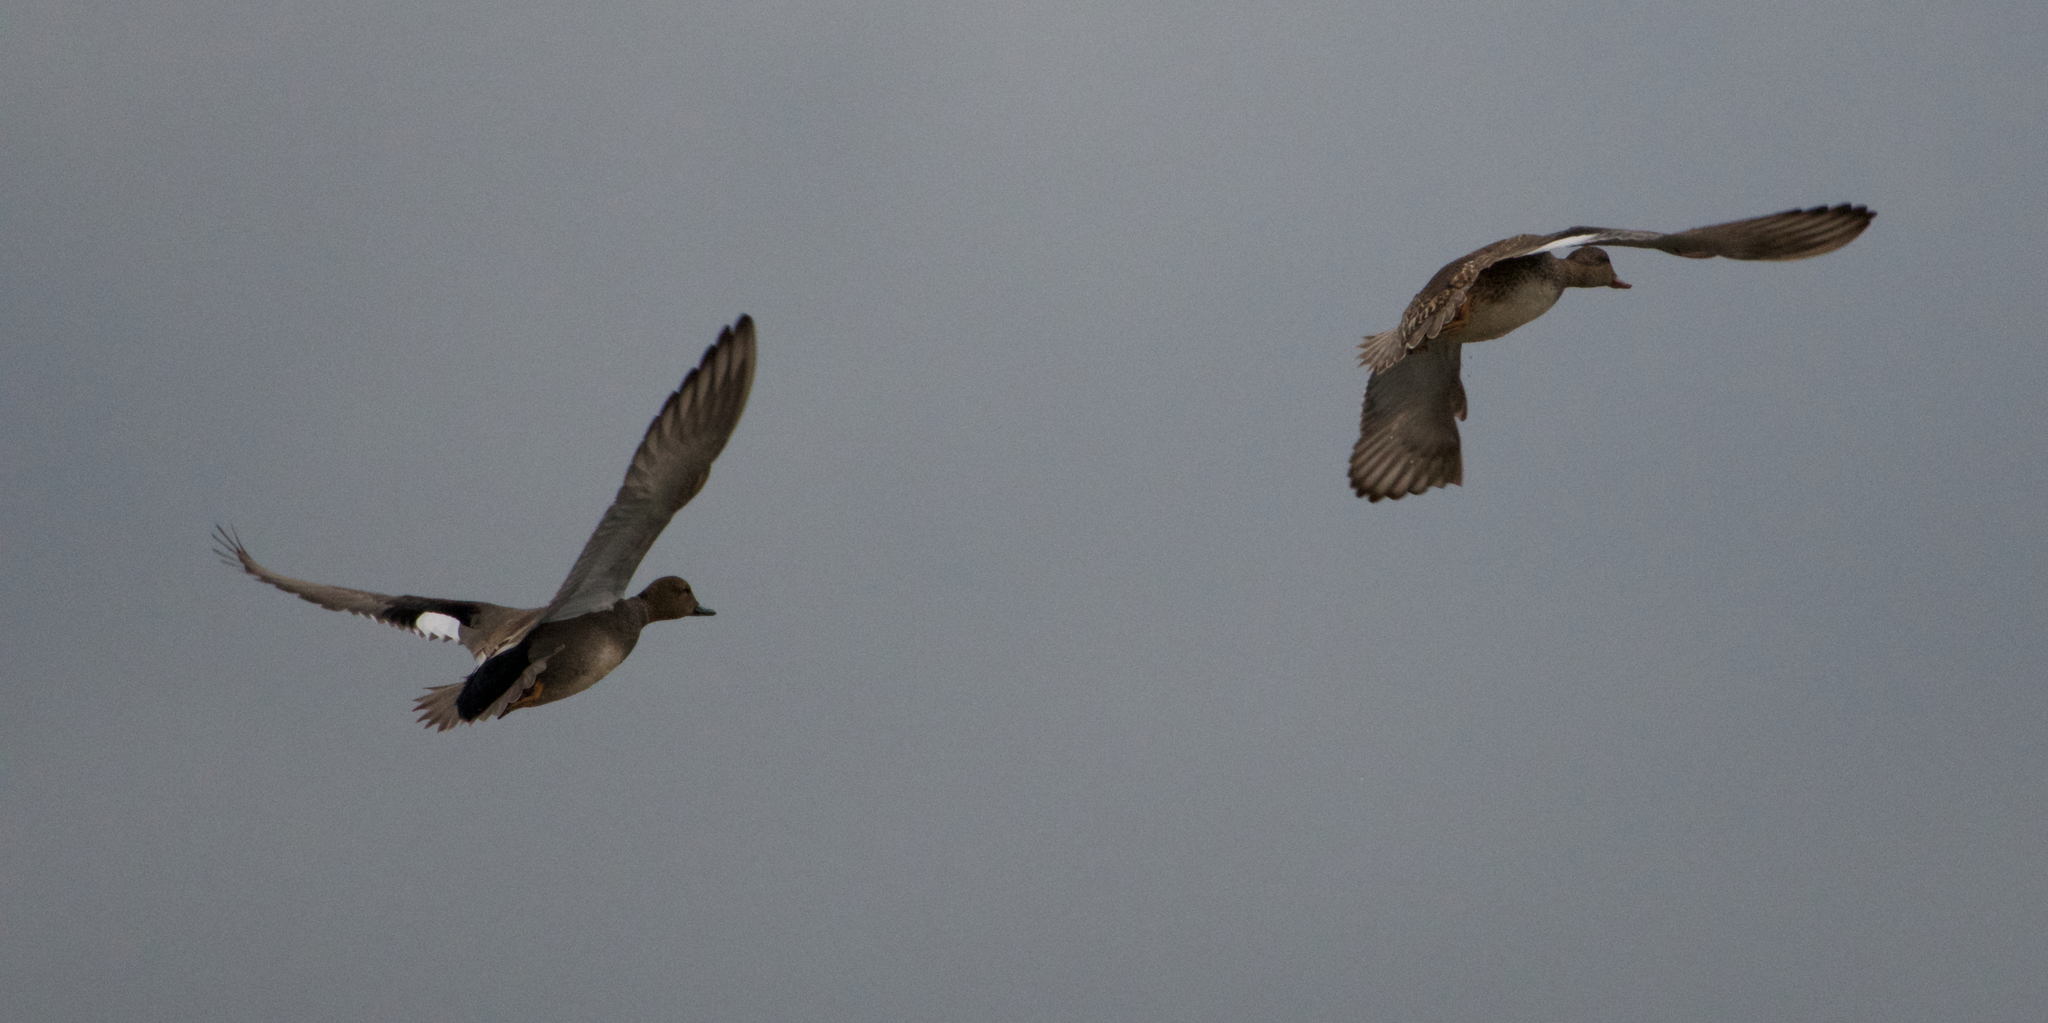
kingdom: Animalia
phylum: Chordata
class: Aves
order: Anseriformes
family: Anatidae
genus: Mareca
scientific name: Mareca strepera
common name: Gadwall
